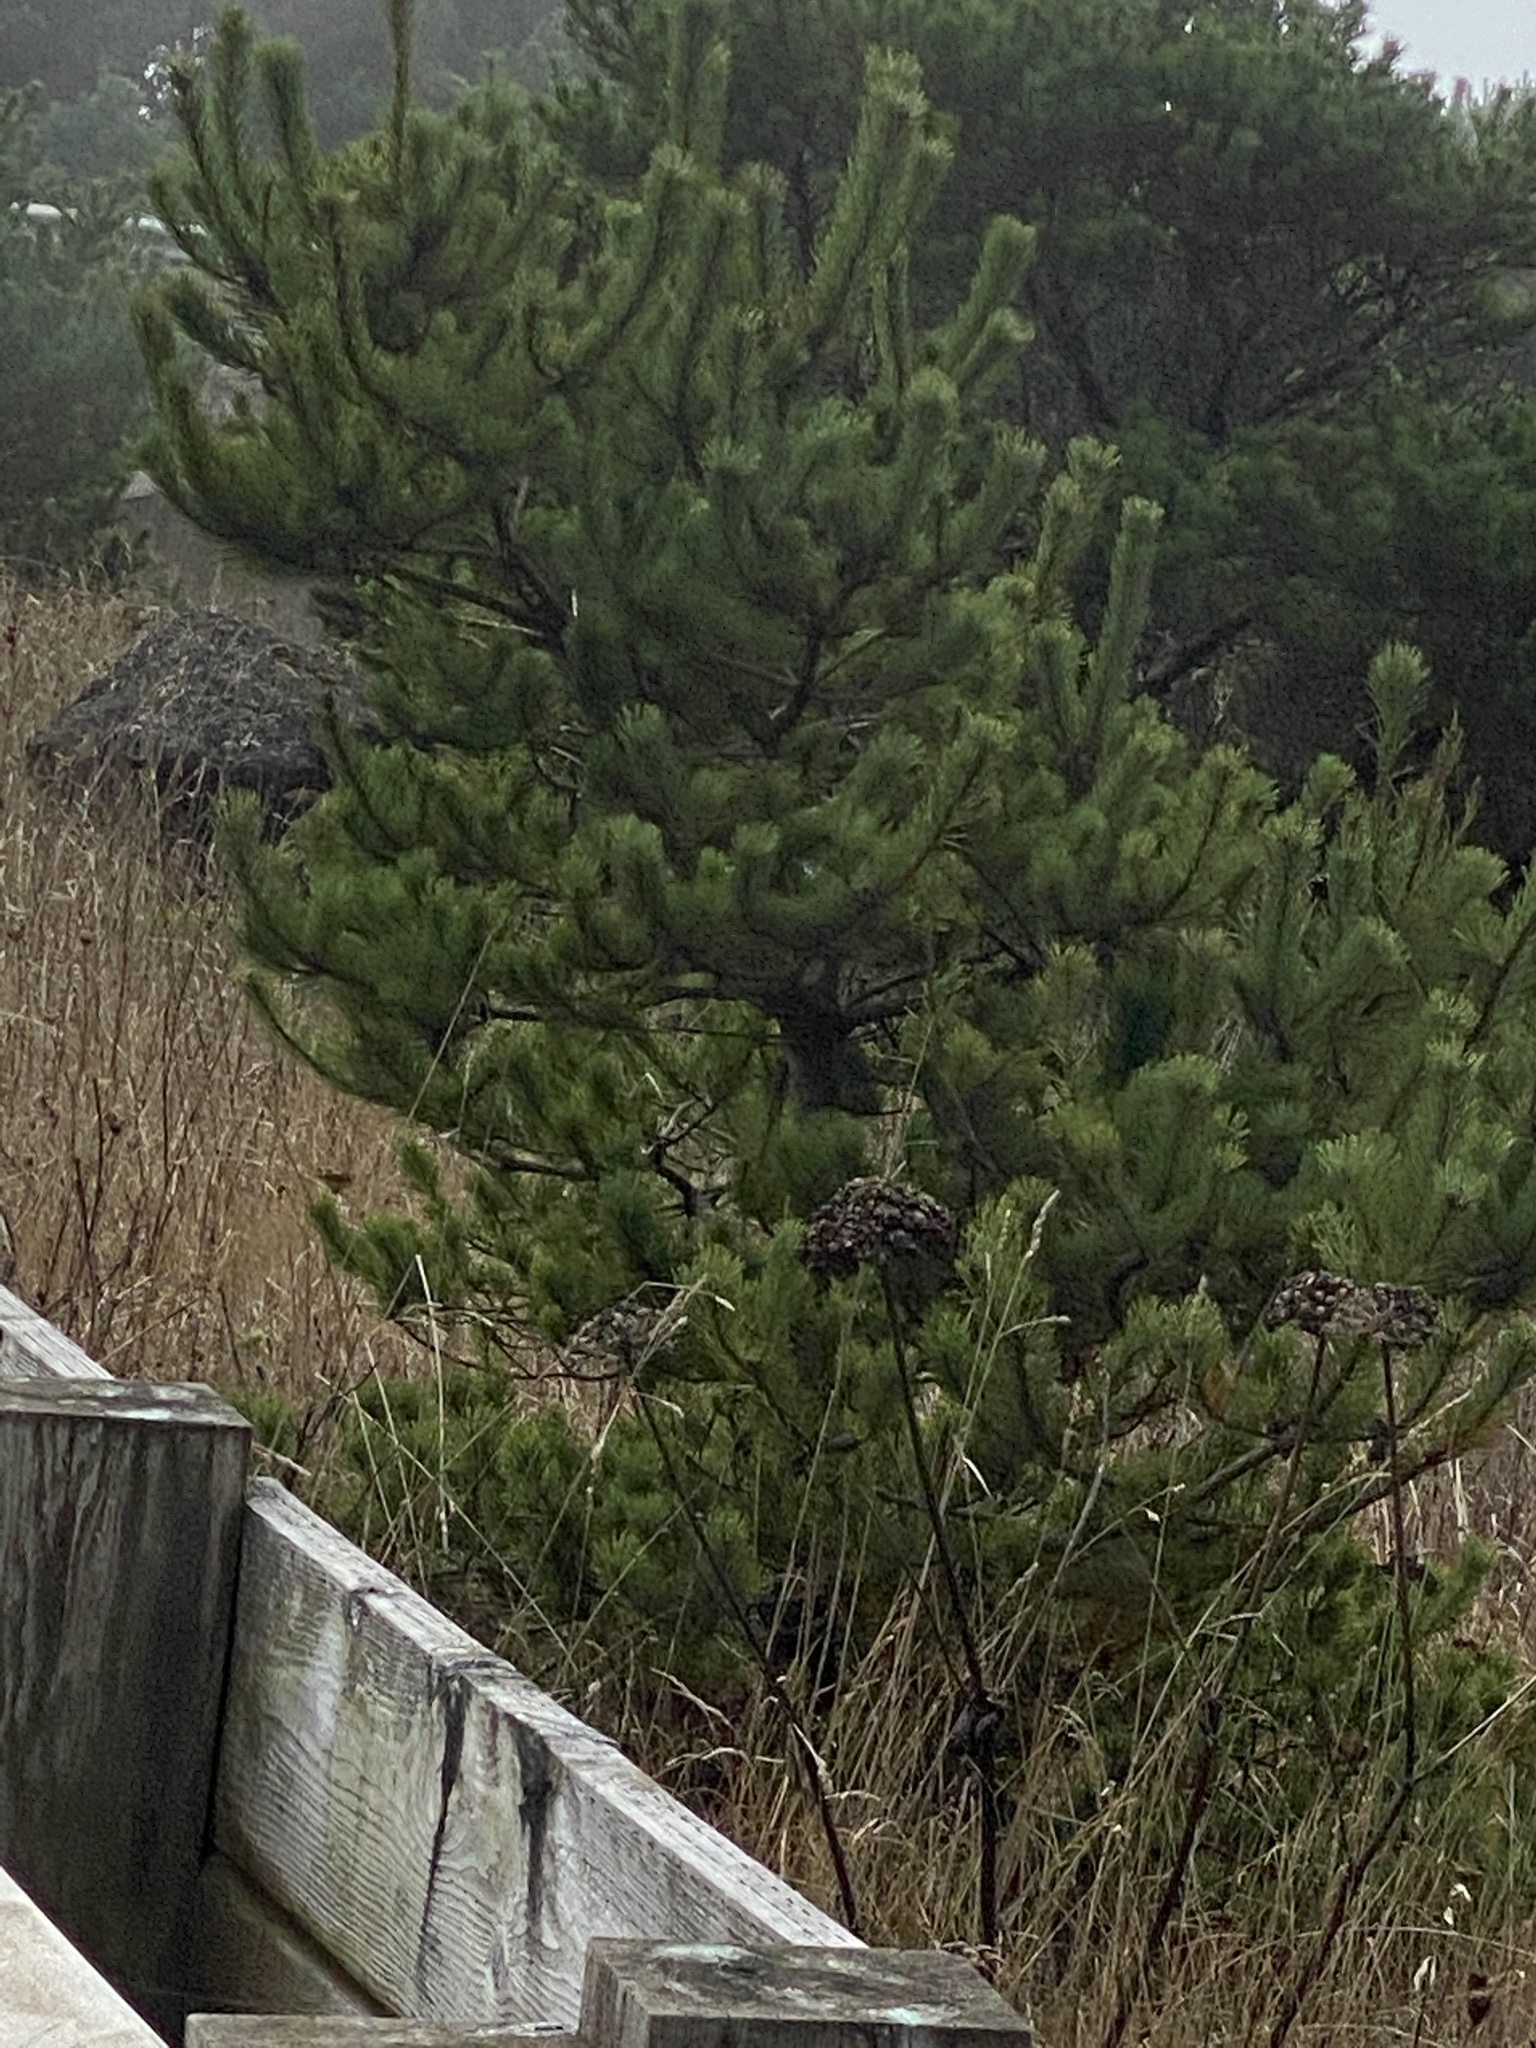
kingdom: Plantae
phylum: Tracheophyta
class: Pinopsida
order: Pinales
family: Pinaceae
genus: Pinus
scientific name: Pinus contorta
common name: Lodgepole pine
